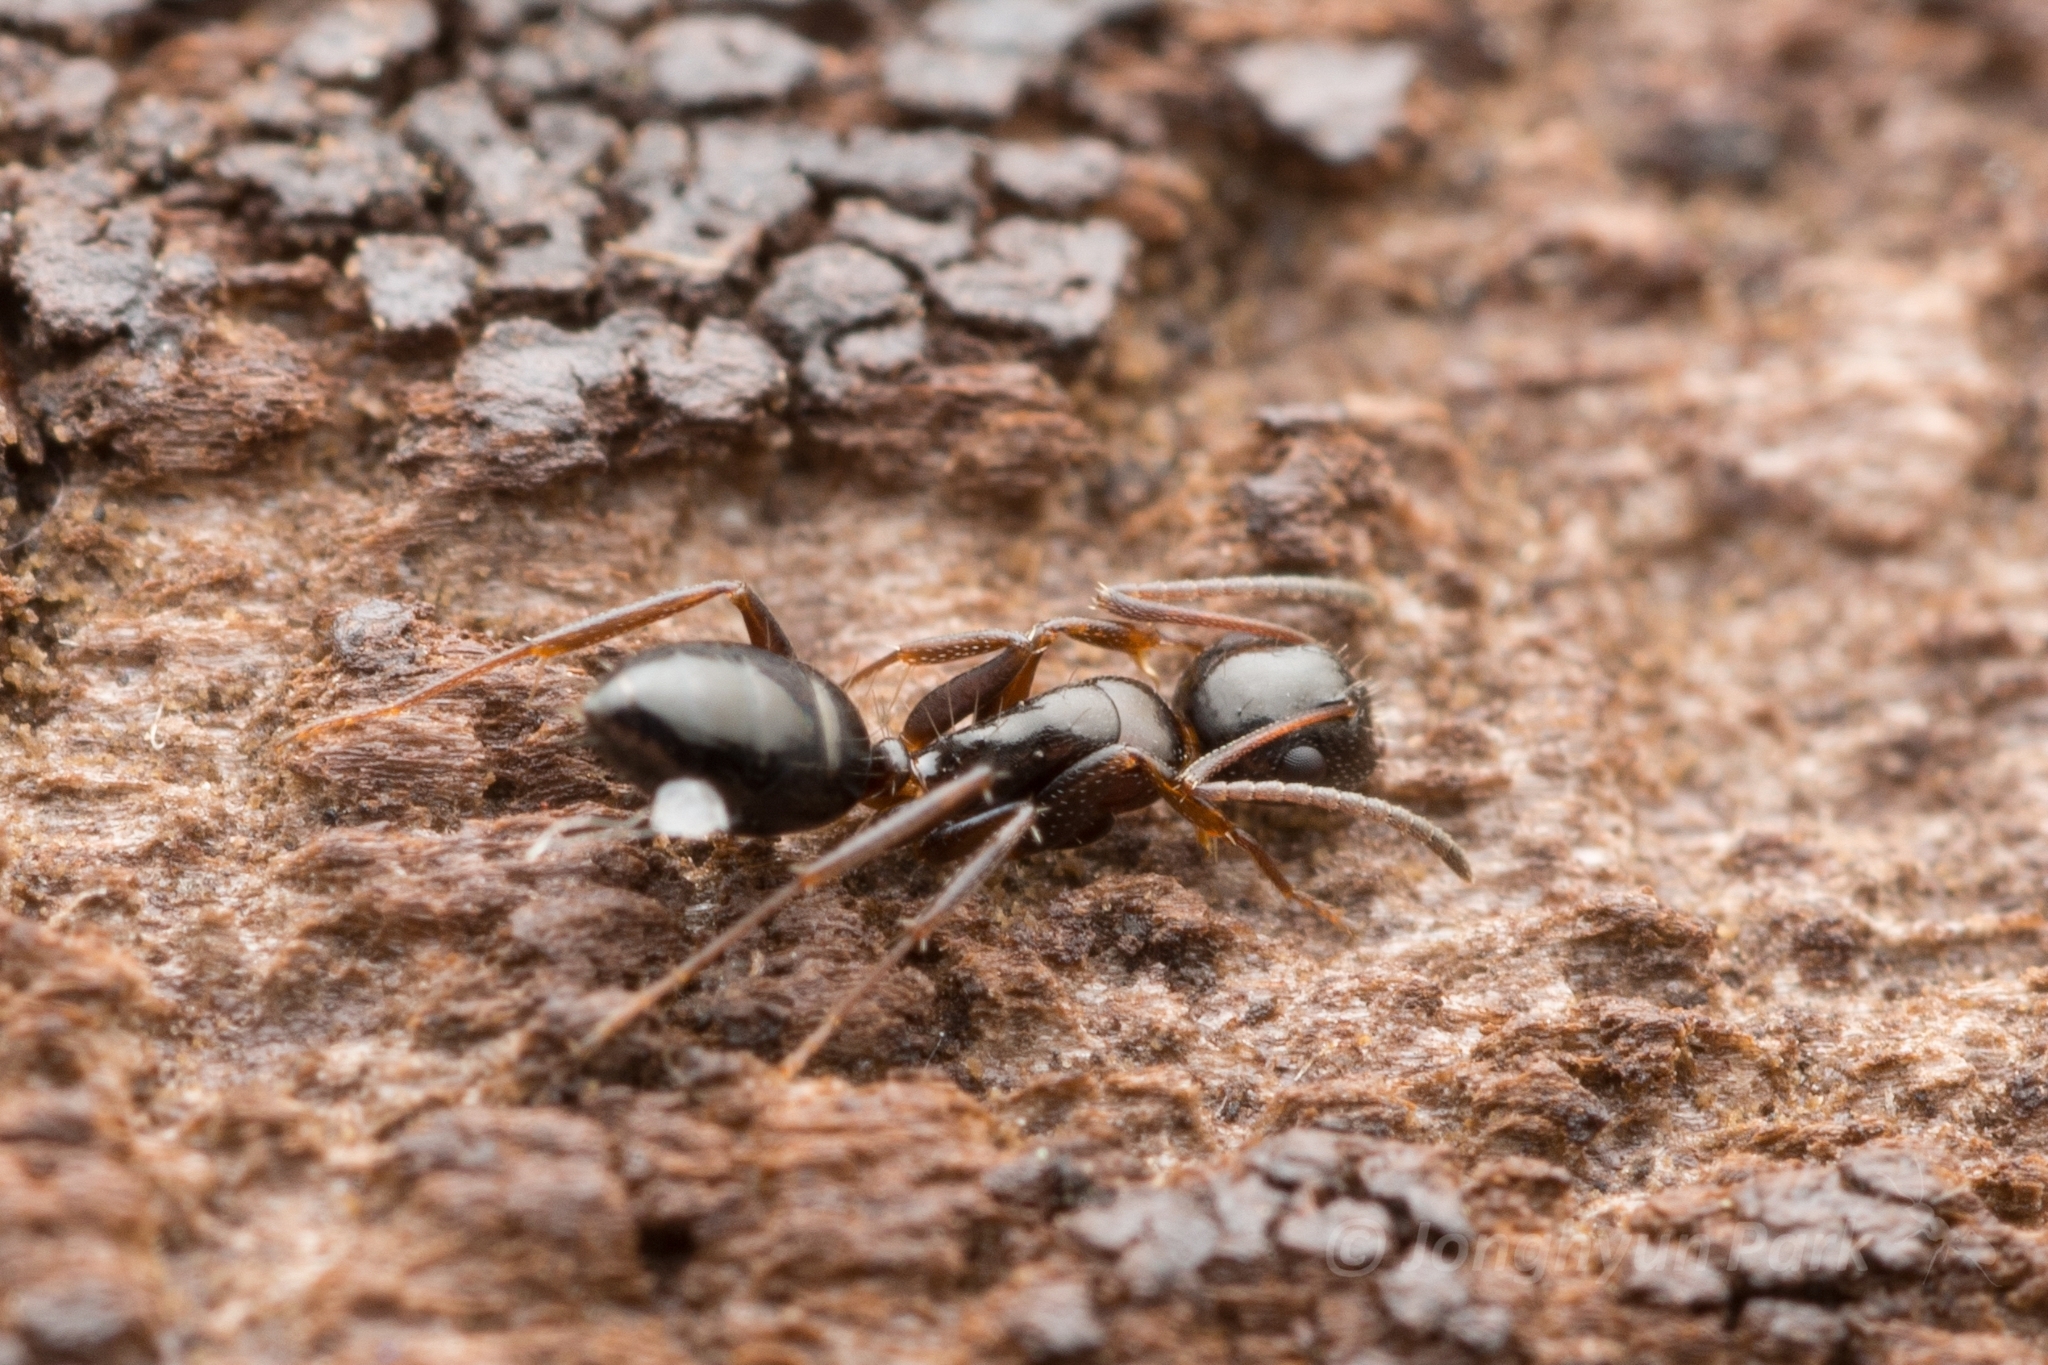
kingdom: Animalia
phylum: Arthropoda
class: Insecta
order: Hymenoptera
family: Formicidae
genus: Camponotus
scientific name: Camponotus vitiosus
